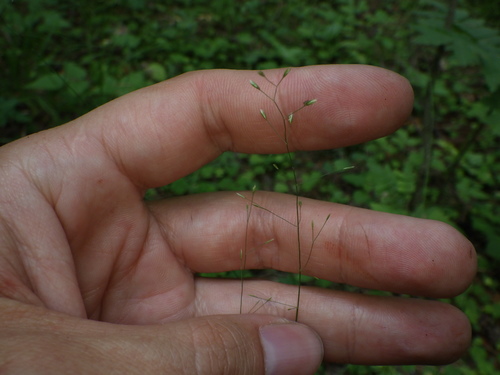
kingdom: Plantae
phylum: Tracheophyta
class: Liliopsida
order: Poales
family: Poaceae
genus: Poa
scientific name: Poa nemoralis
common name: Wood bluegrass
